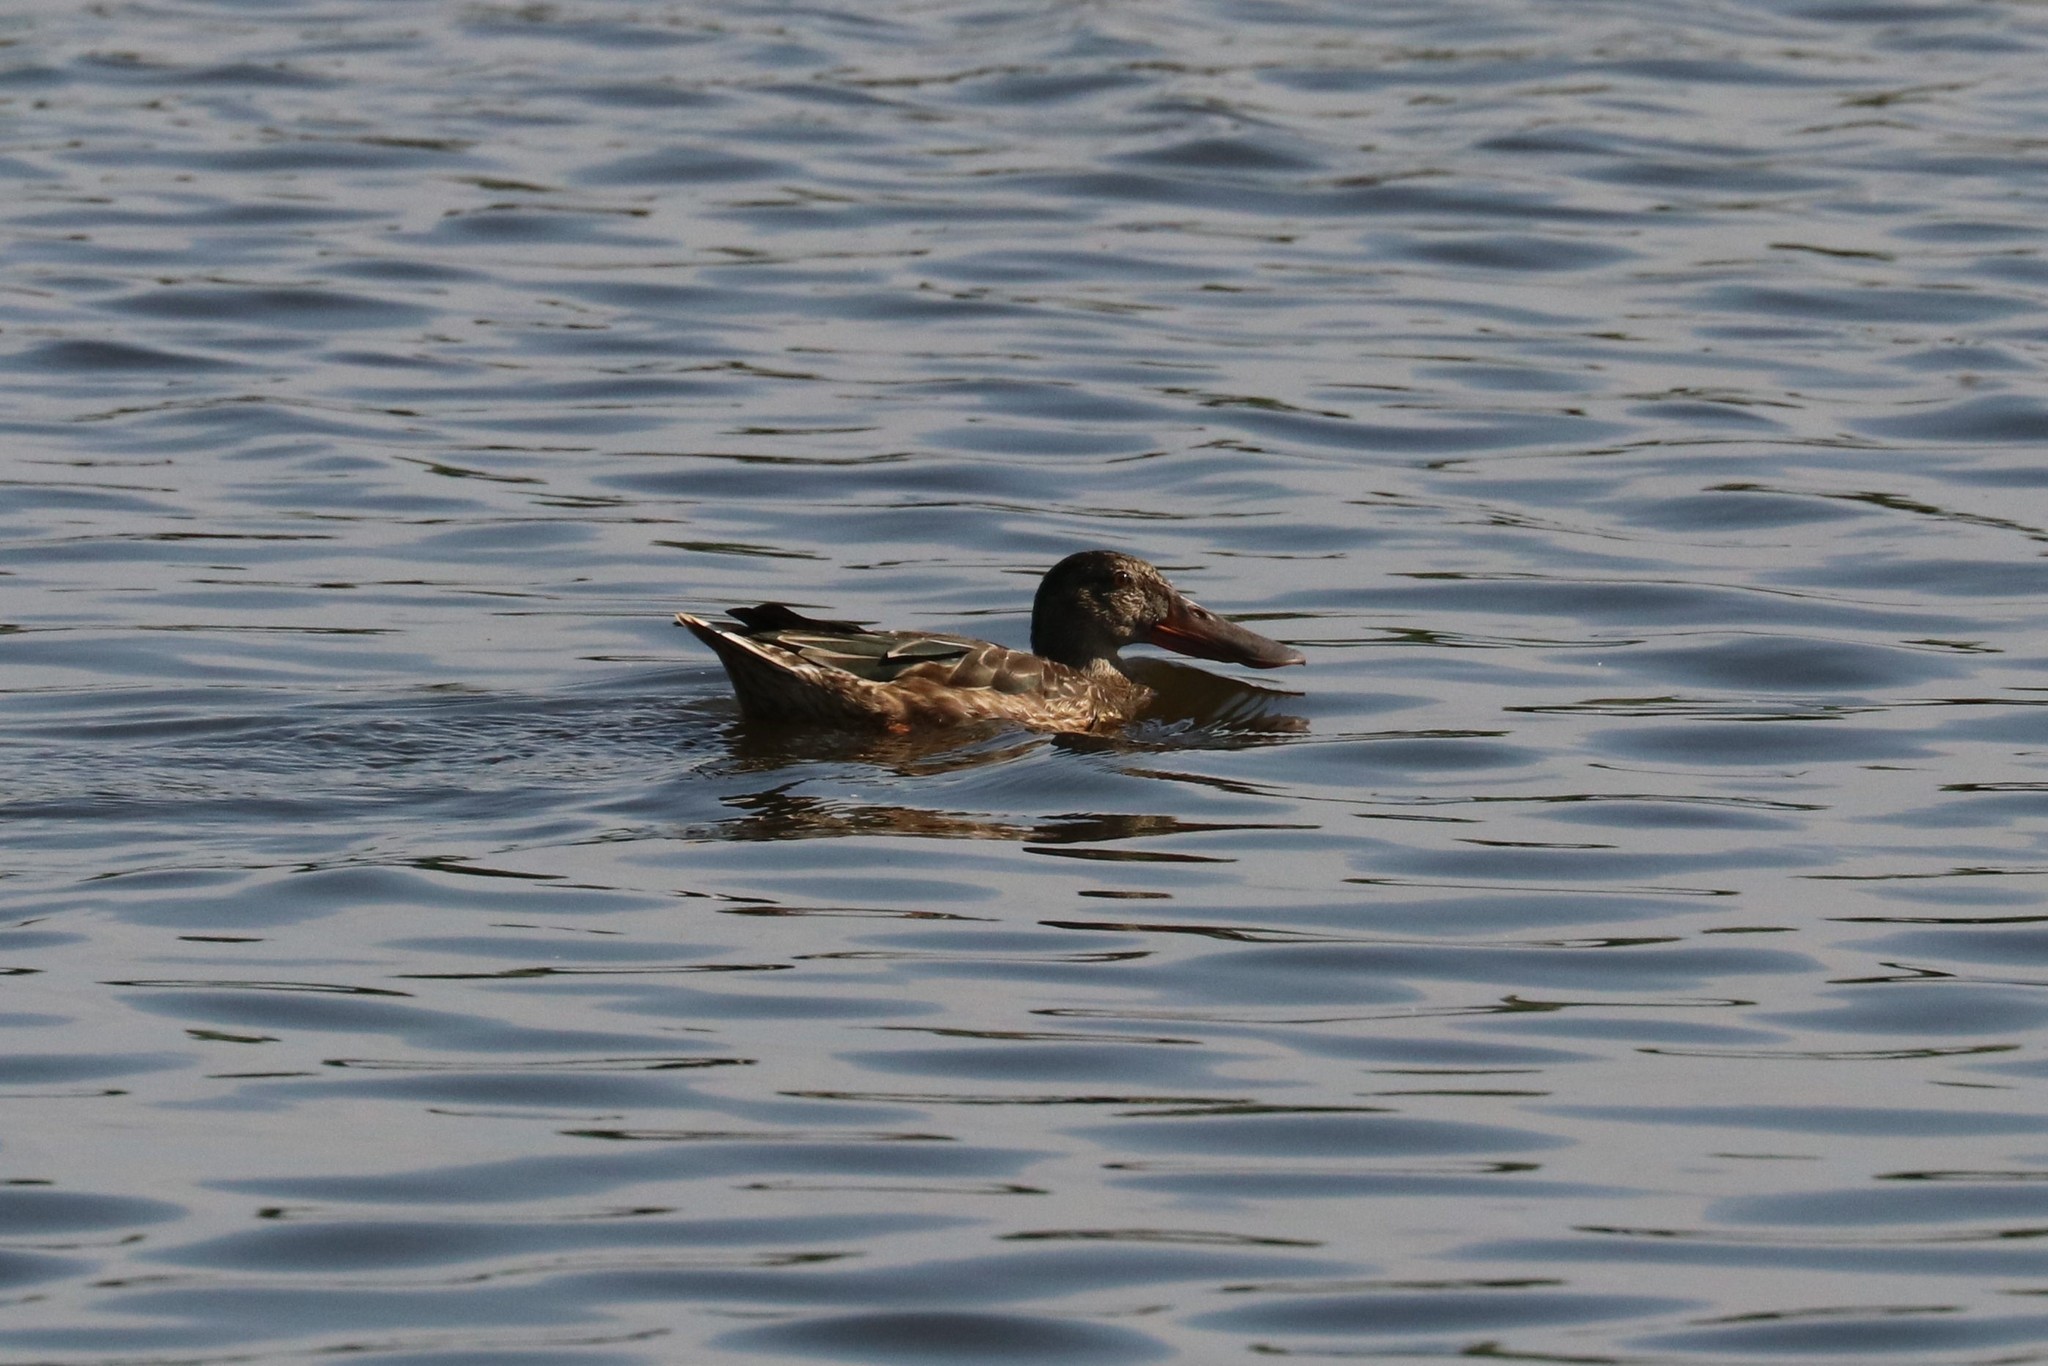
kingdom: Animalia
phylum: Chordata
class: Aves
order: Anseriformes
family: Anatidae
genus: Spatula
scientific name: Spatula clypeata
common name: Northern shoveler
